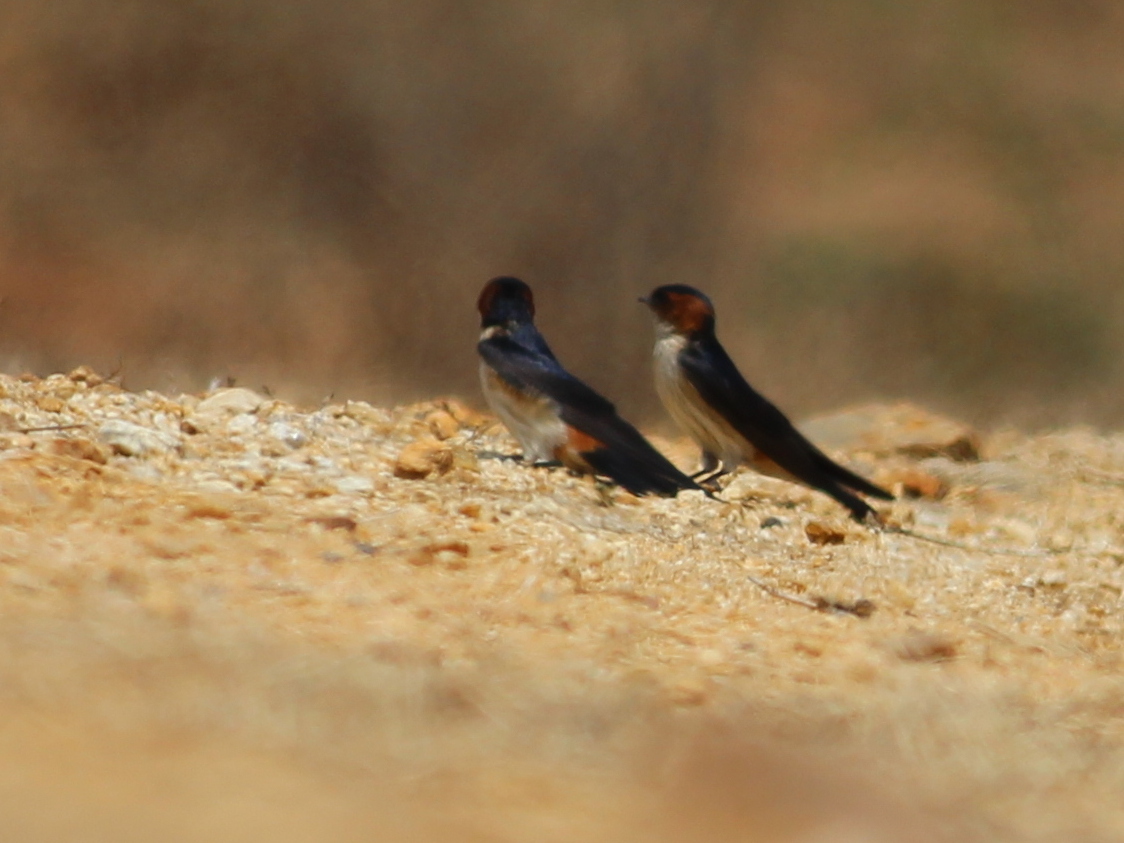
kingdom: Animalia
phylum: Chordata
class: Aves
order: Passeriformes
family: Hirundinidae
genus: Cecropis
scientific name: Cecropis daurica
